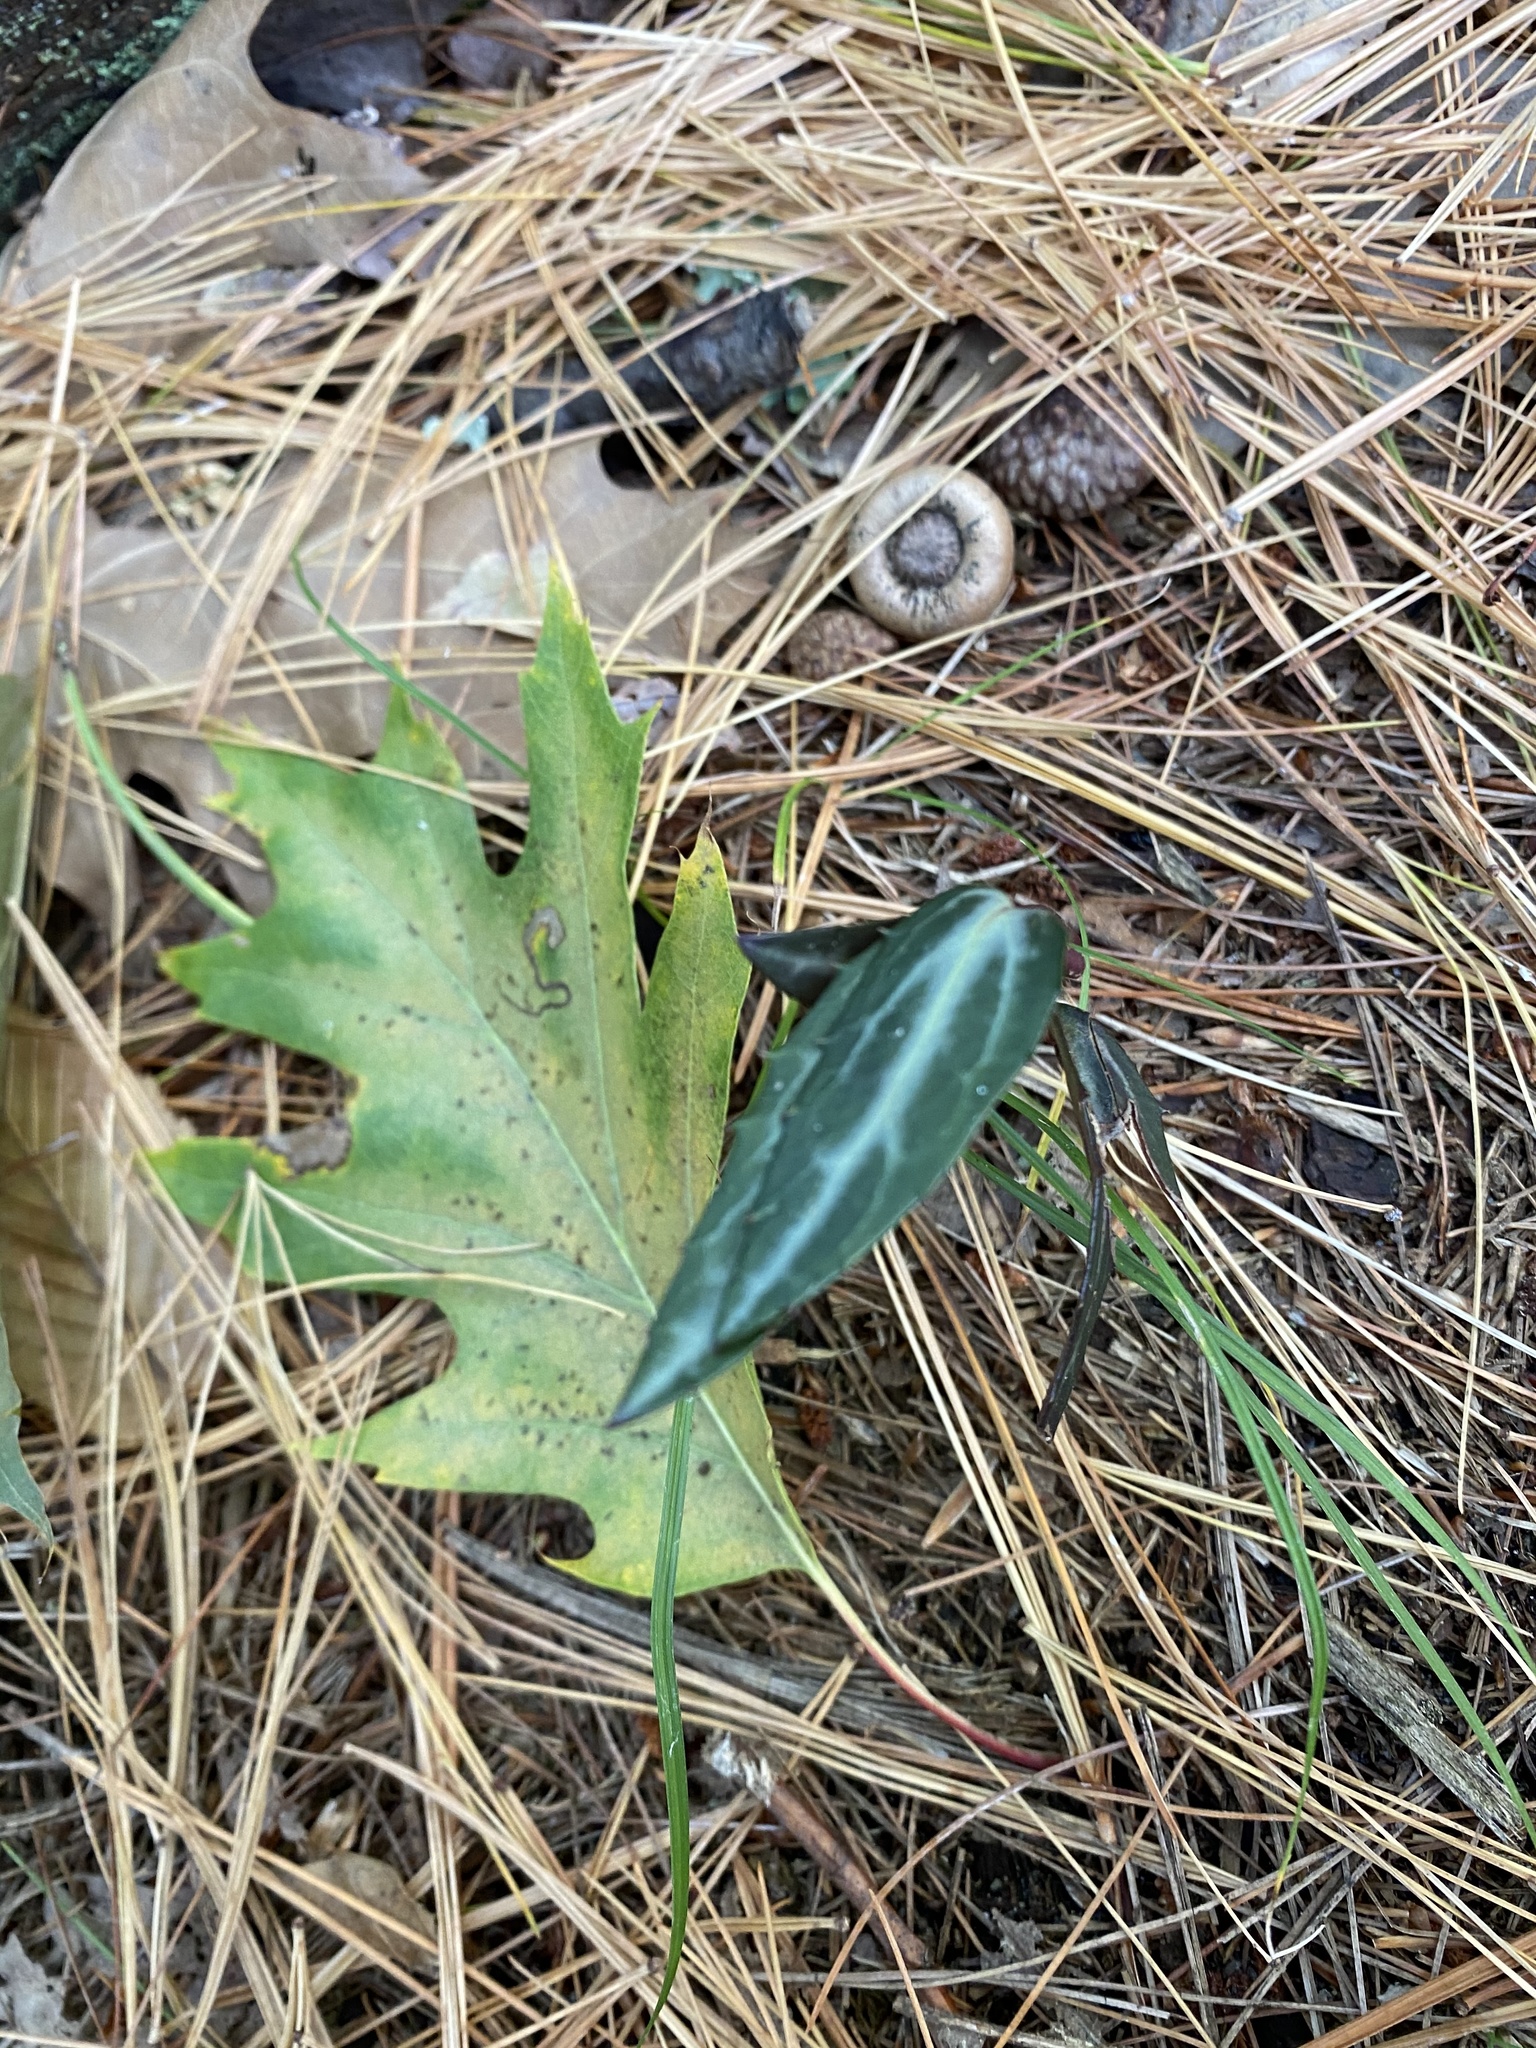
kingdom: Plantae
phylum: Tracheophyta
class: Magnoliopsida
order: Ericales
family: Ericaceae
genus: Chimaphila
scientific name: Chimaphila maculata
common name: Spotted pipsissewa
